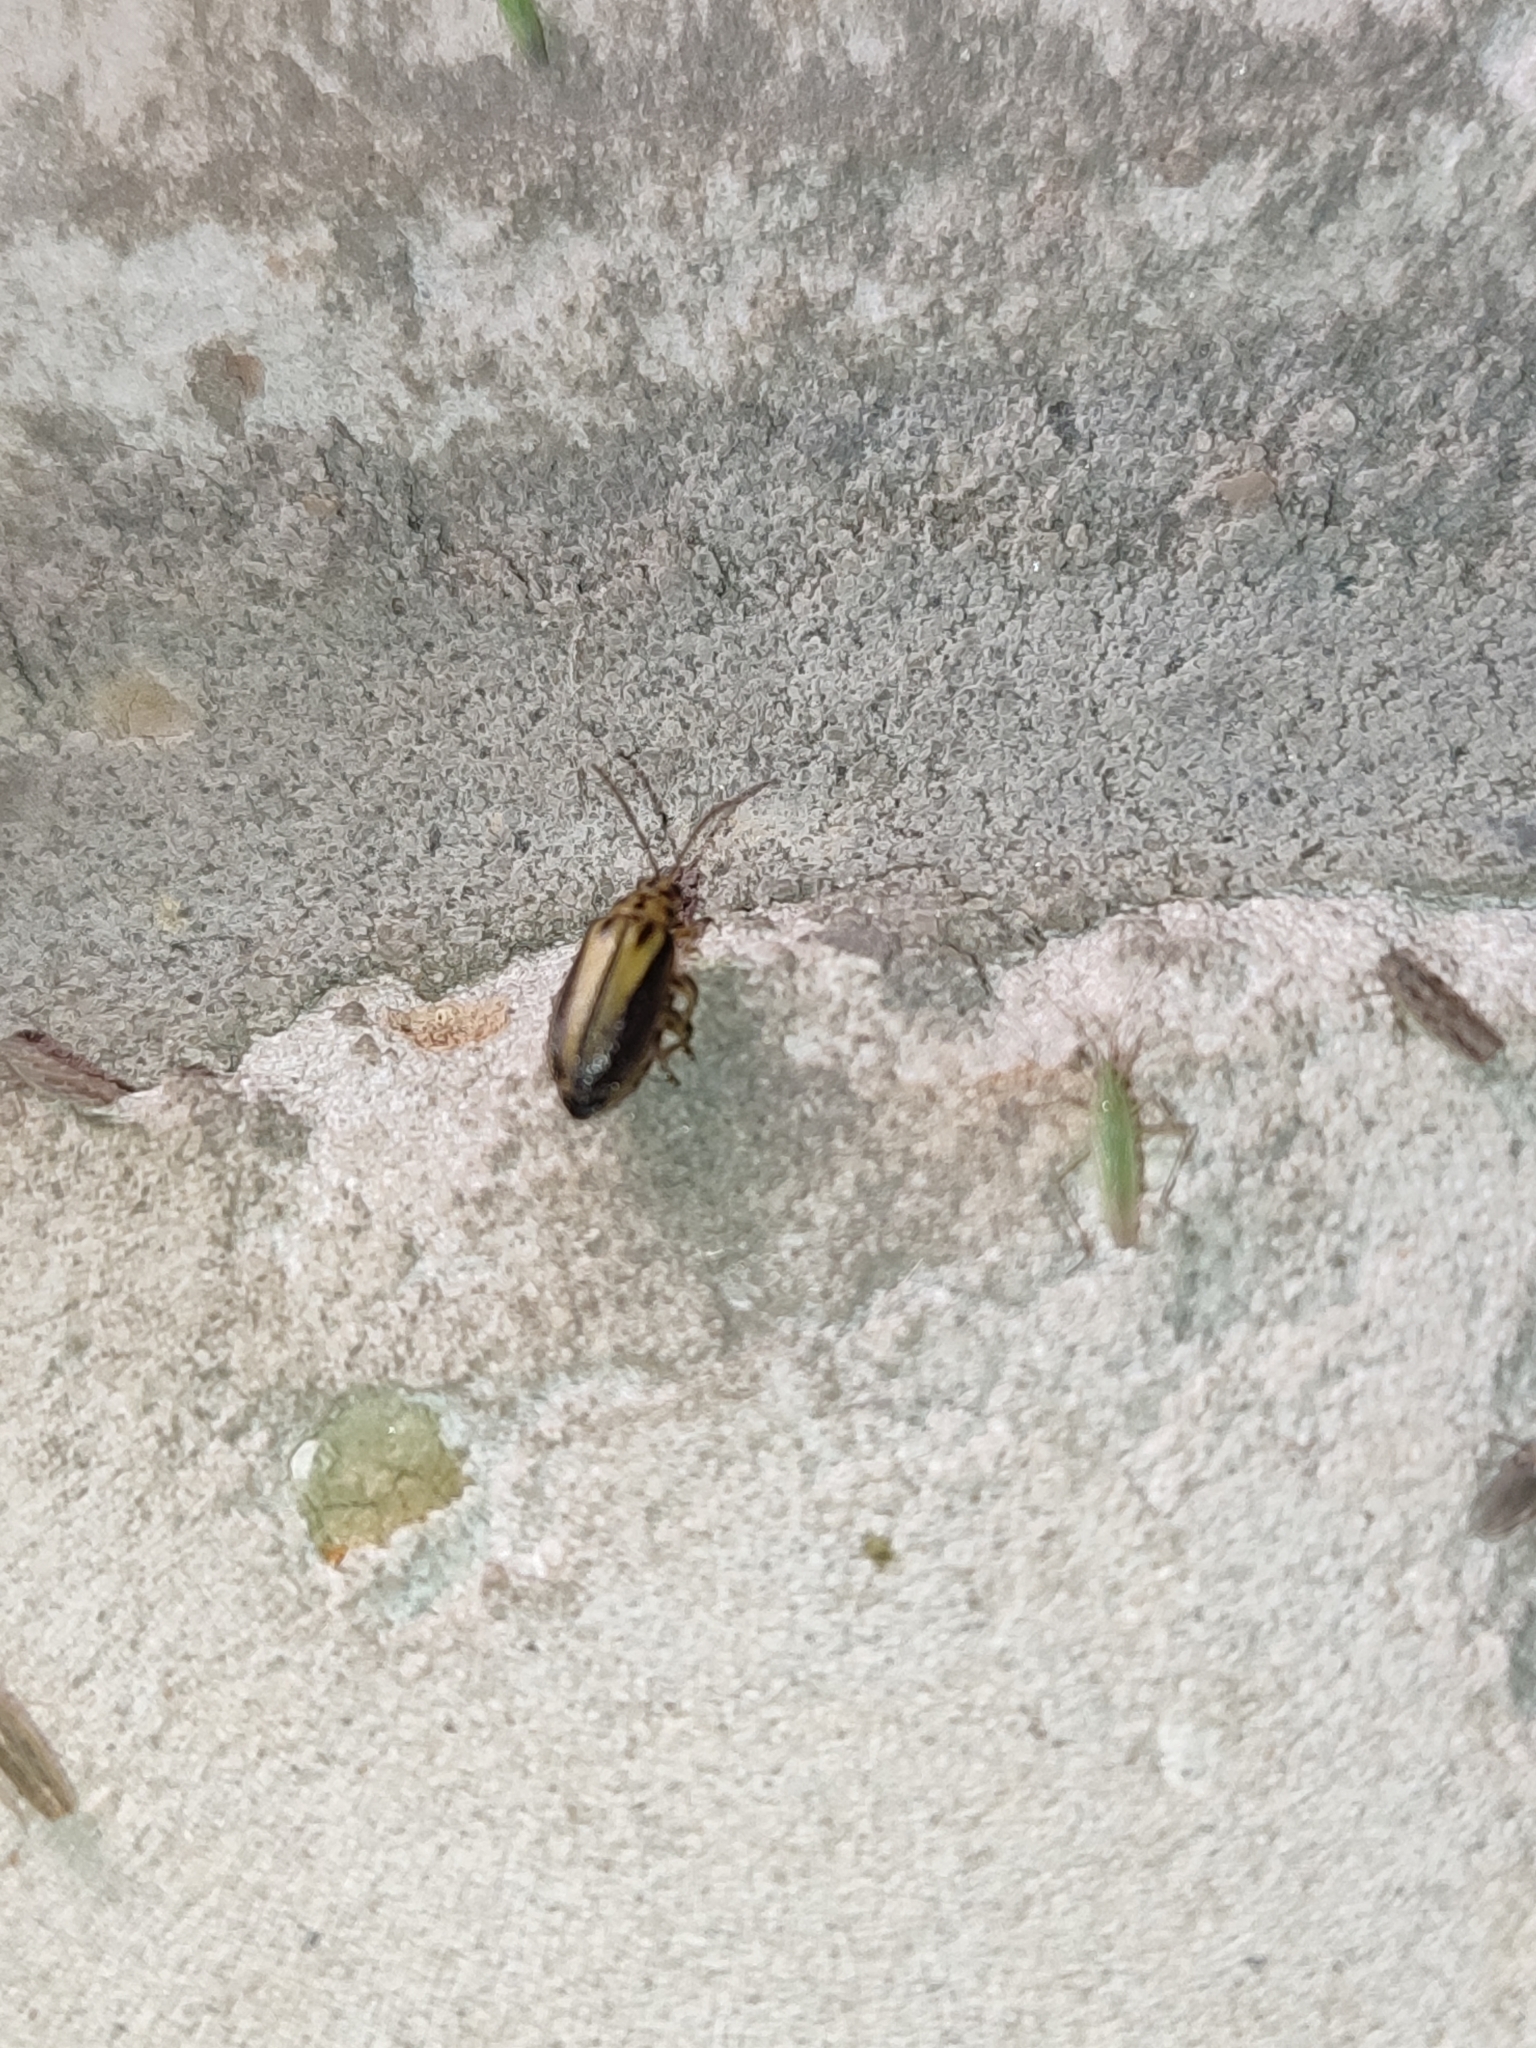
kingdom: Animalia
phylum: Arthropoda
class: Insecta
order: Coleoptera
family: Chrysomelidae
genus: Xanthogaleruca
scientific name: Xanthogaleruca luteola
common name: Elm leaf beetle
